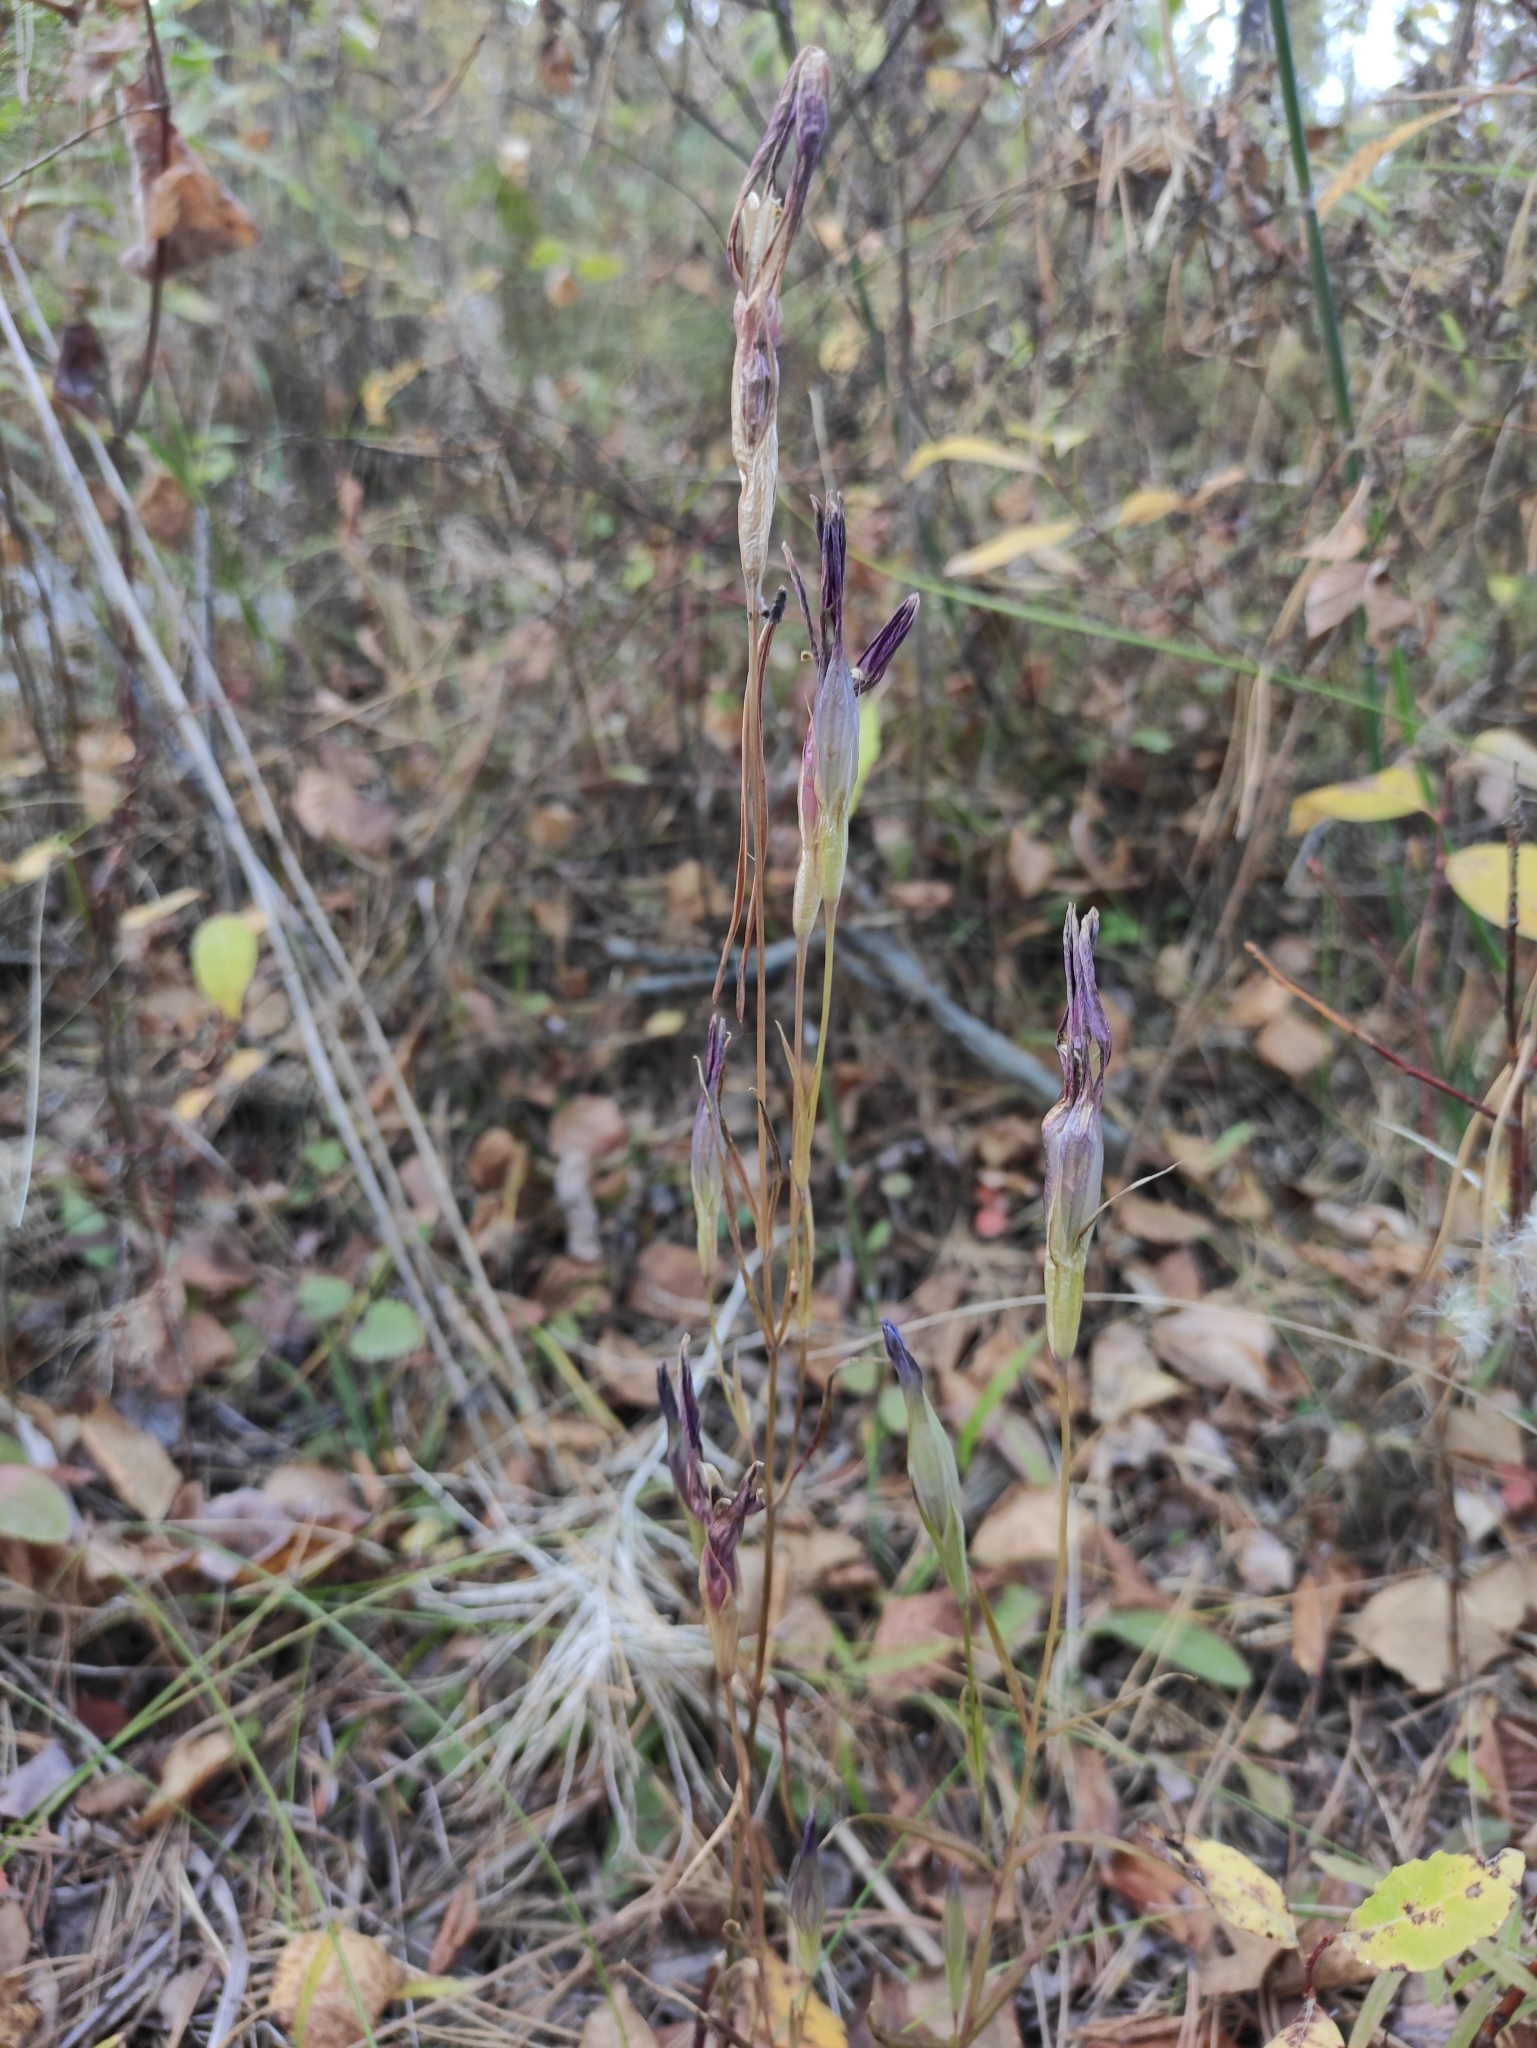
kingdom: Plantae
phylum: Tracheophyta
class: Magnoliopsida
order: Gentianales
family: Gentianaceae
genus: Gentianopsis
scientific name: Gentianopsis barbata
